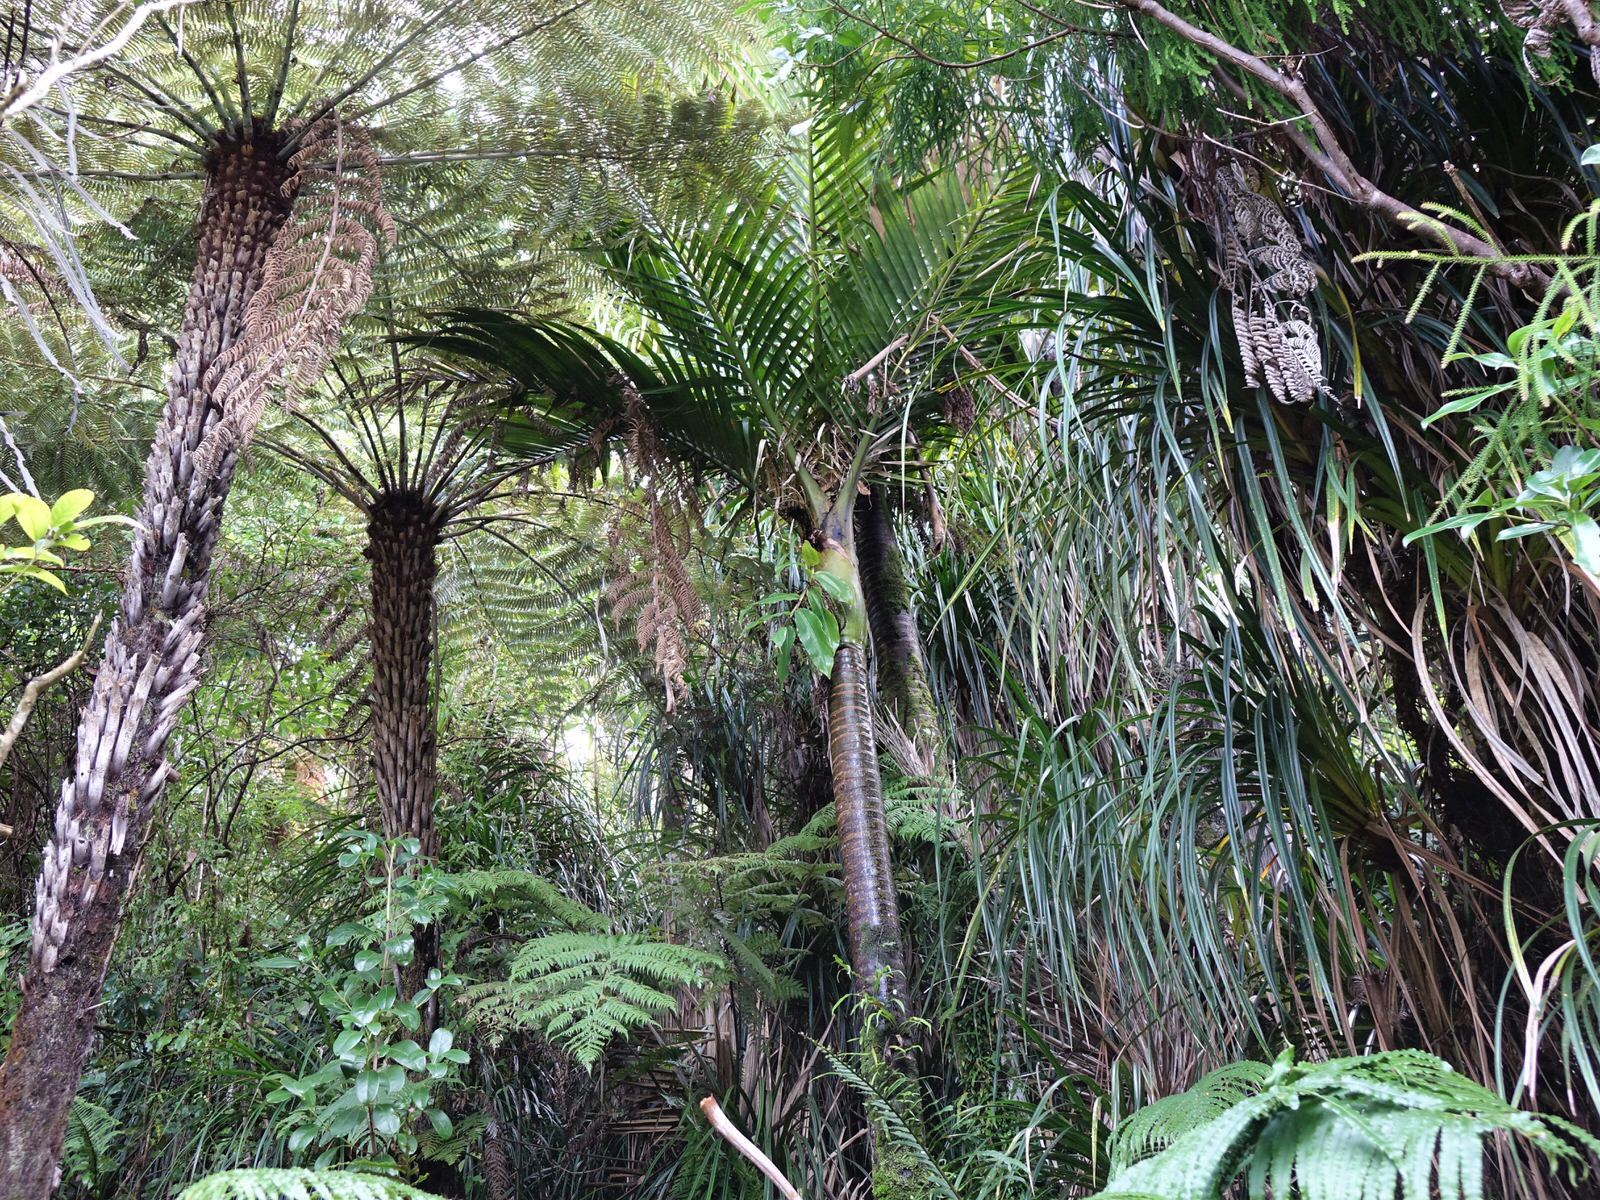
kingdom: Plantae
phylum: Tracheophyta
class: Liliopsida
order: Zingiberales
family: Zingiberaceae
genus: Hedychium
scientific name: Hedychium gardnerianum
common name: Himalayan ginger
